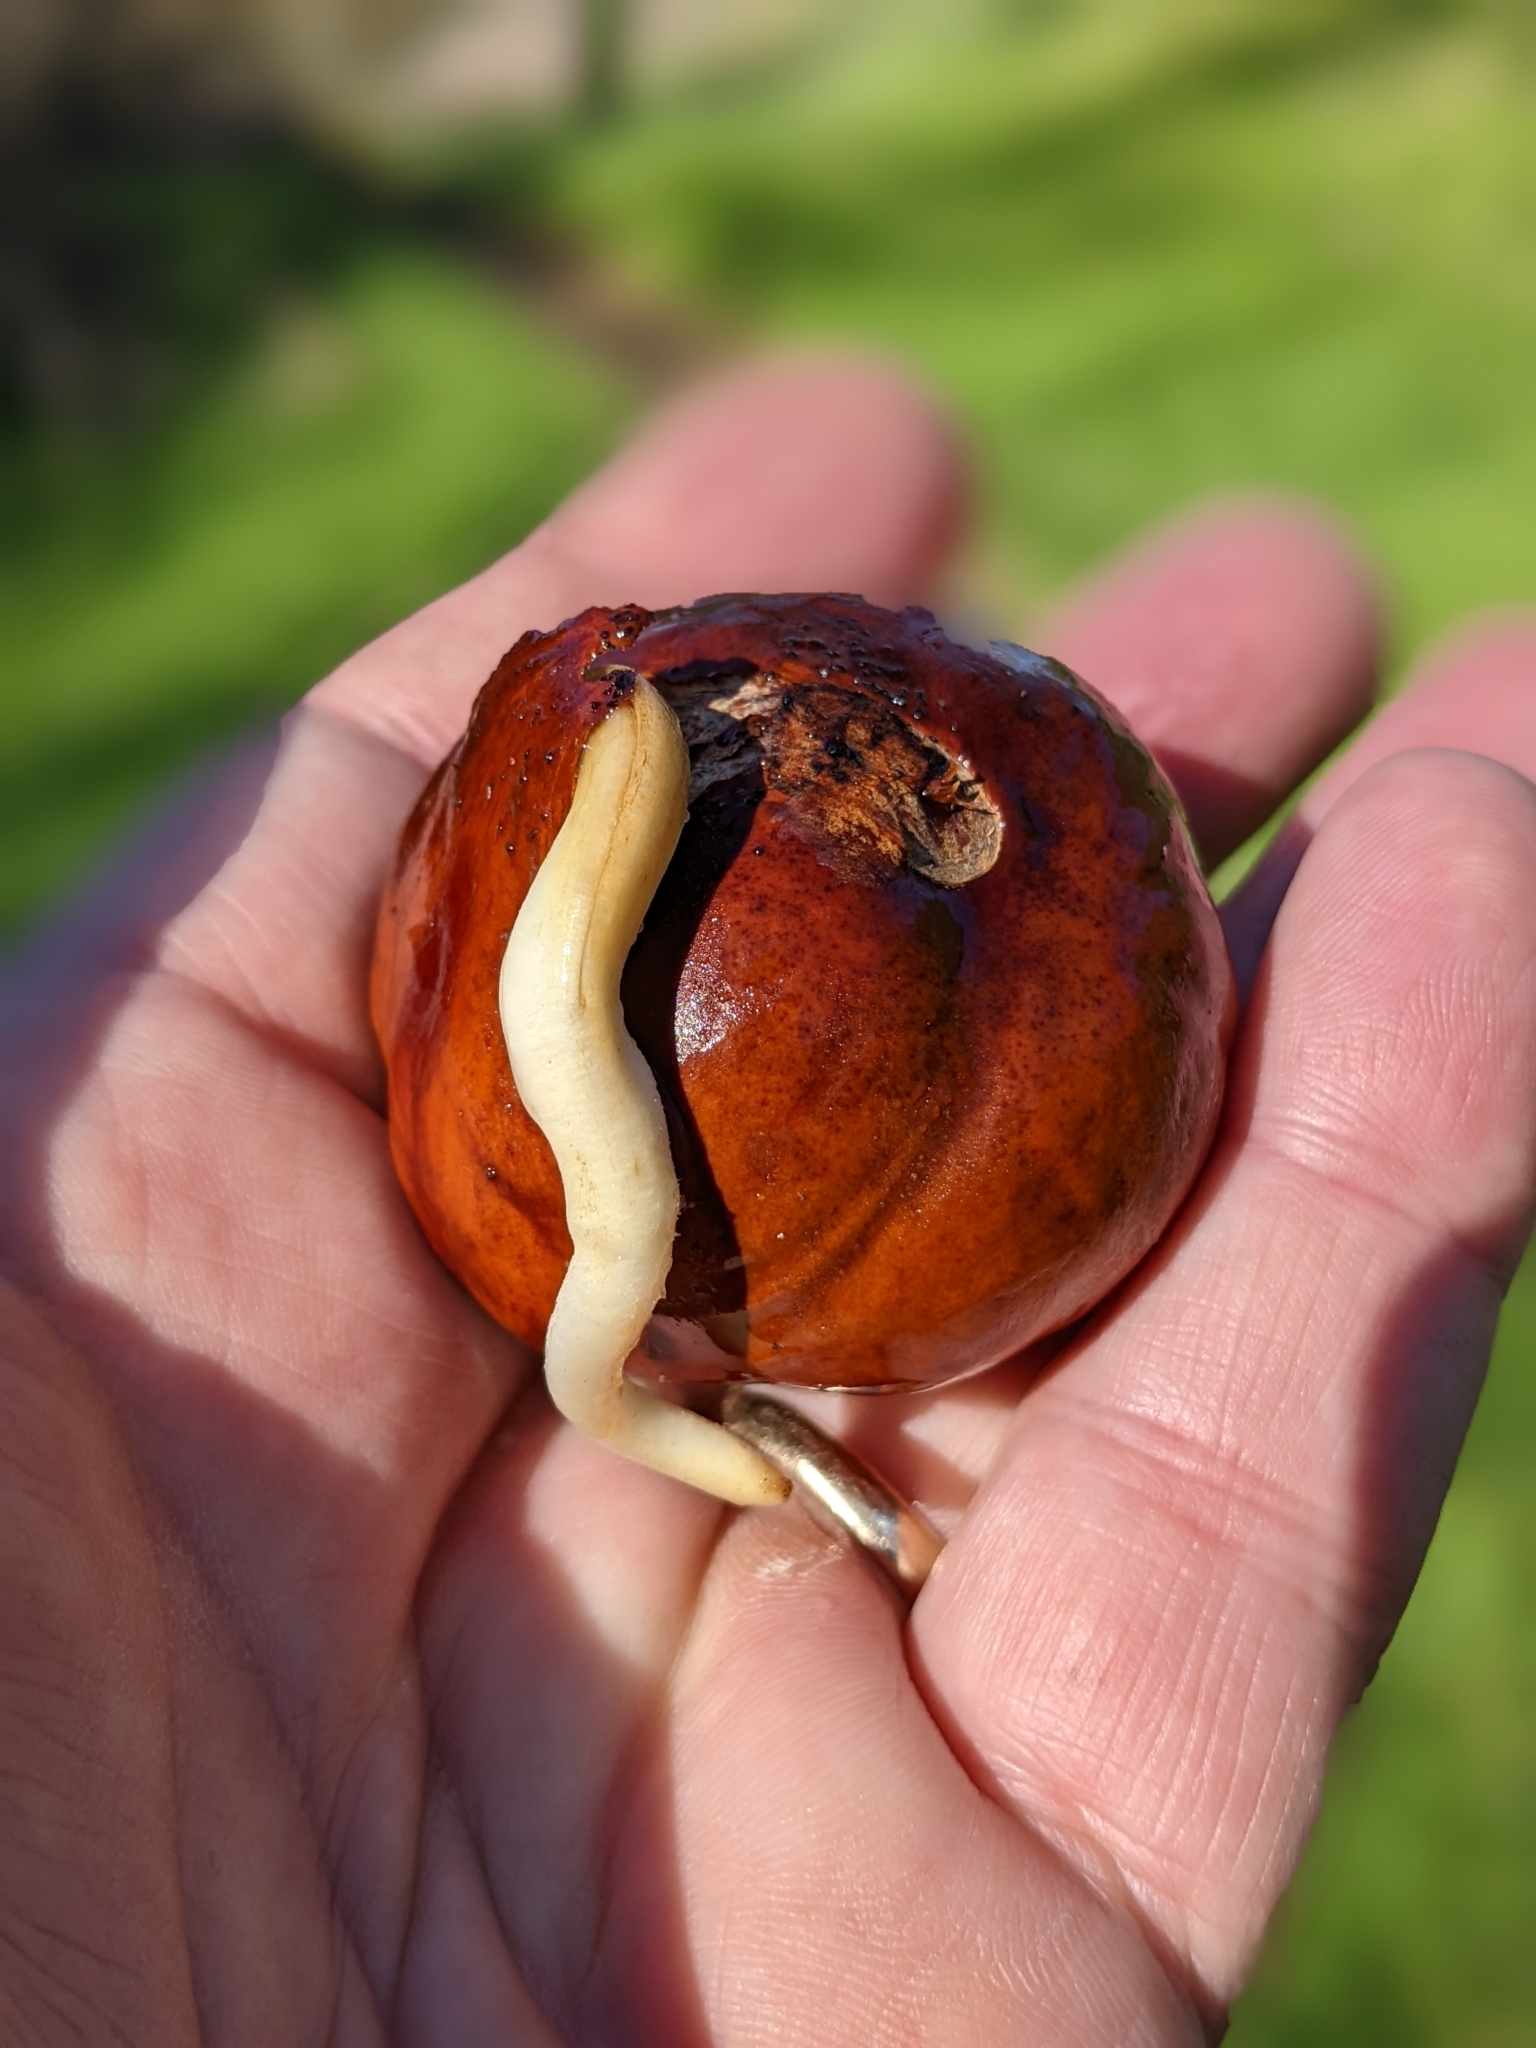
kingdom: Plantae
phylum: Tracheophyta
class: Magnoliopsida
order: Sapindales
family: Sapindaceae
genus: Aesculus
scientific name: Aesculus californica
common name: California buckeye
